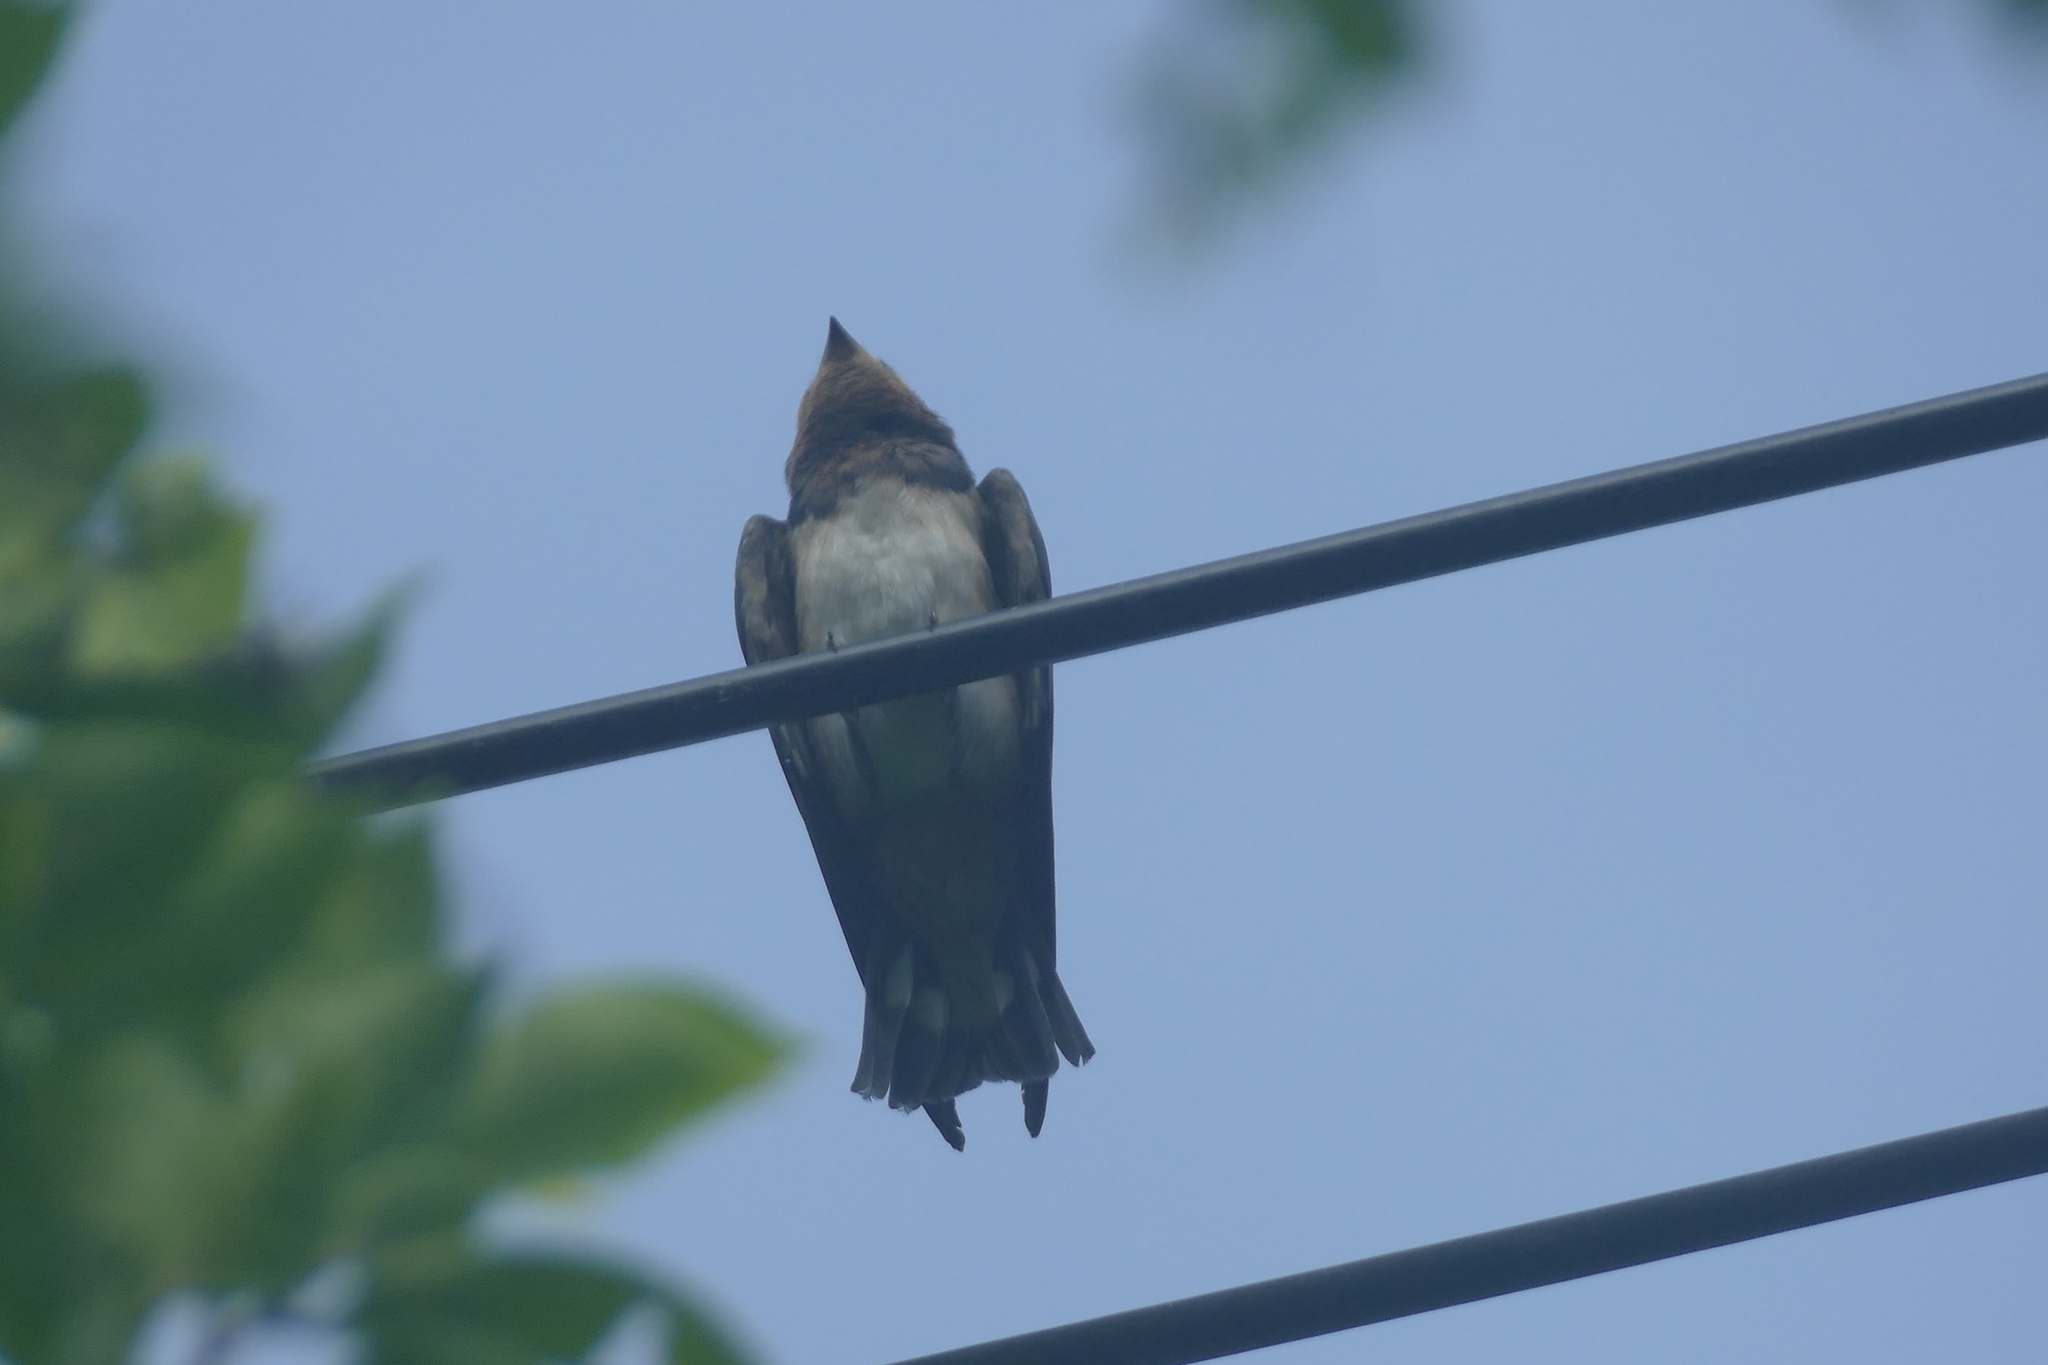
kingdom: Animalia
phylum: Chordata
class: Aves
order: Passeriformes
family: Hirundinidae
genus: Hirundo
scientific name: Hirundo tahitica
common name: Pacific swallow
